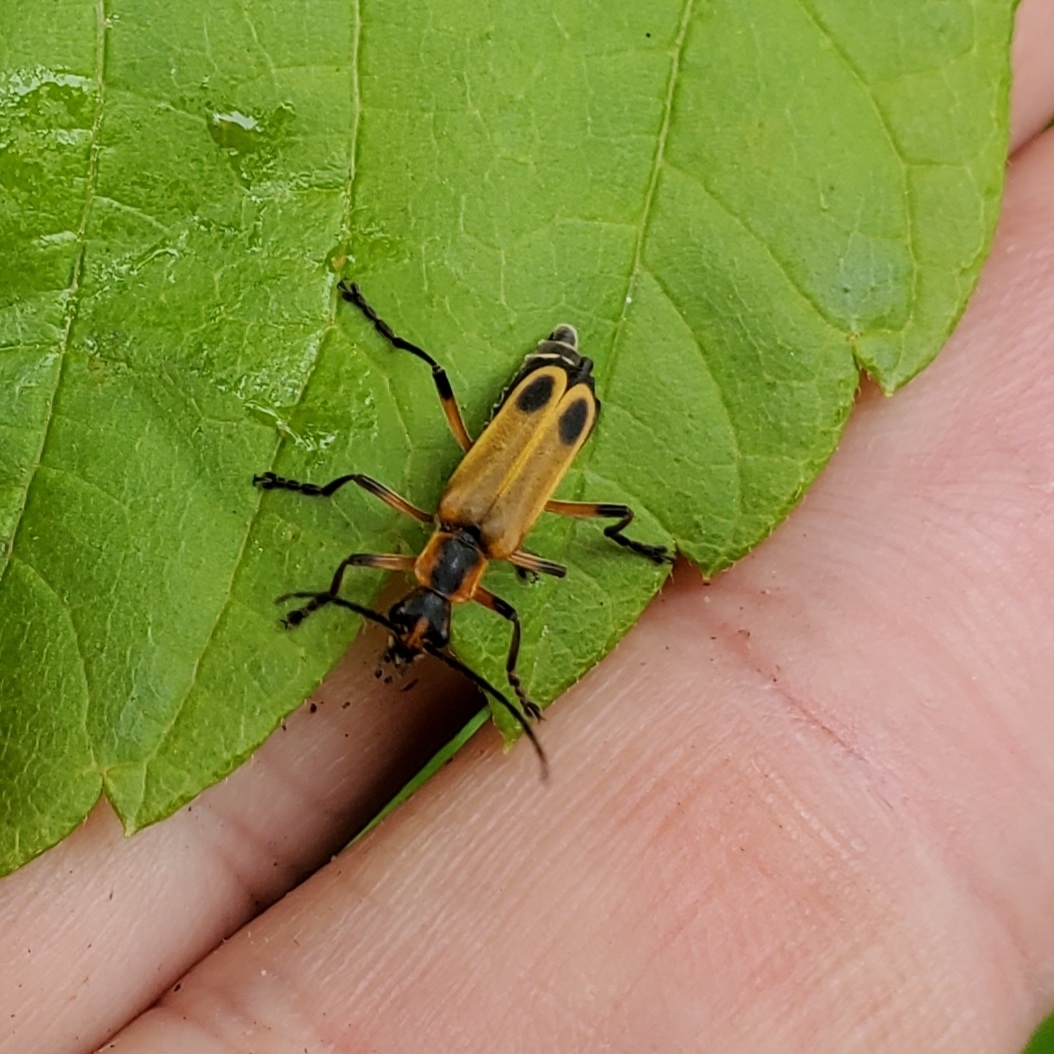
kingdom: Animalia
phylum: Arthropoda
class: Insecta
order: Coleoptera
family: Cantharidae
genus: Chauliognathus
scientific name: Chauliognathus marginatus
